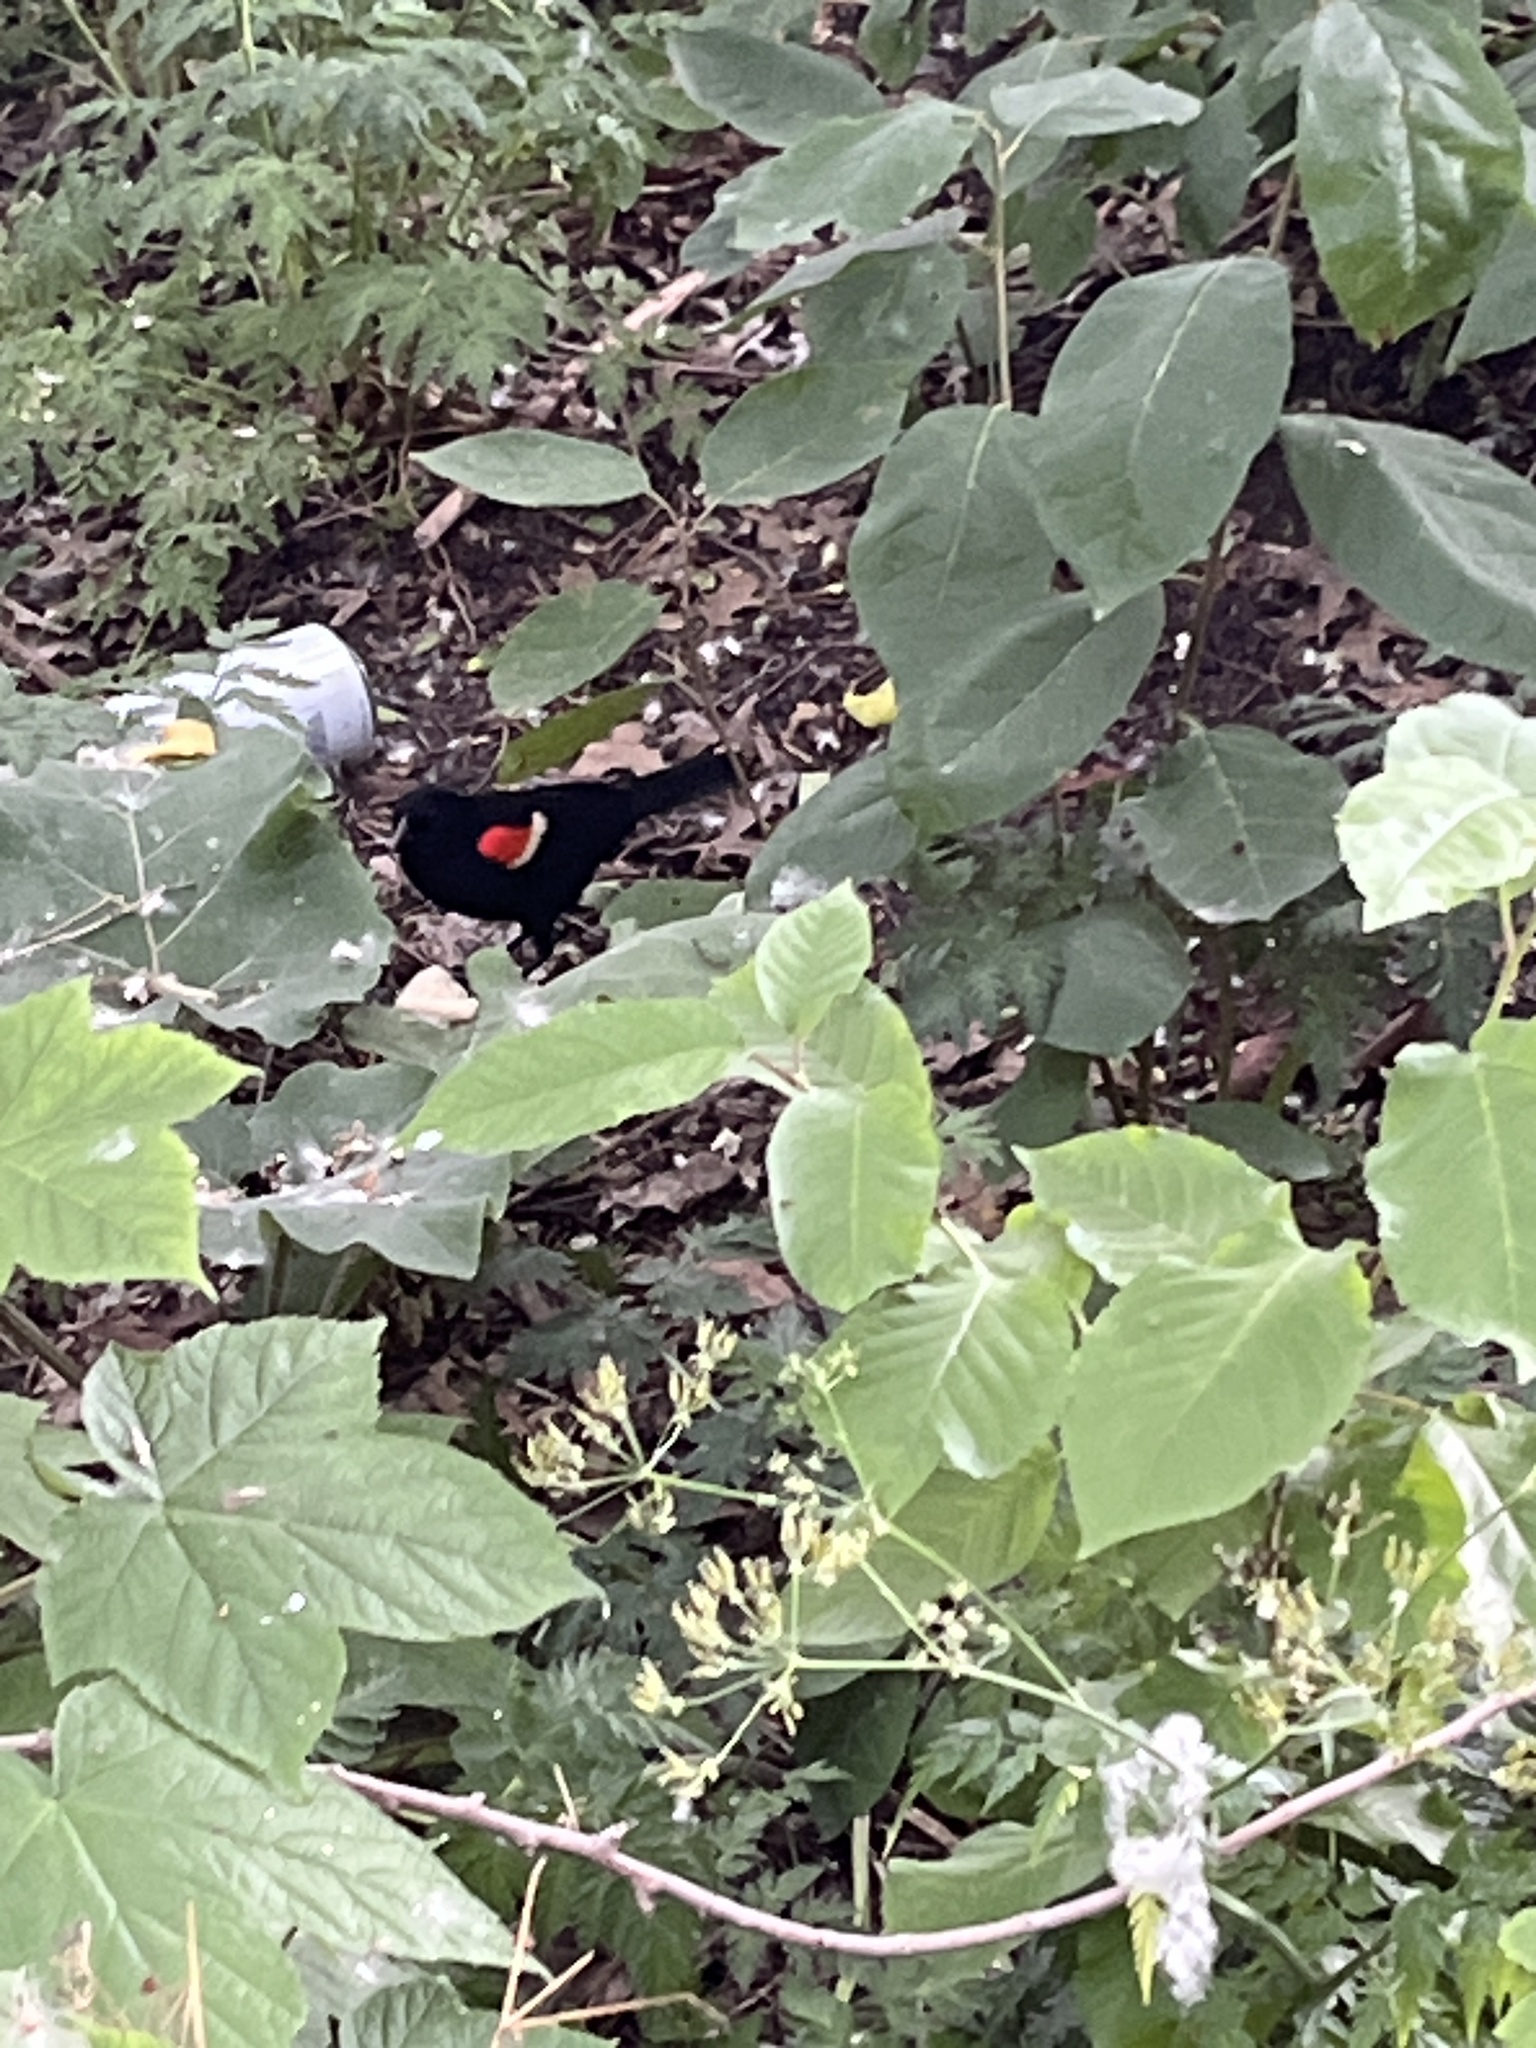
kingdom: Animalia
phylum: Chordata
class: Aves
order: Passeriformes
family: Icteridae
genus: Agelaius
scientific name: Agelaius phoeniceus
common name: Red-winged blackbird
